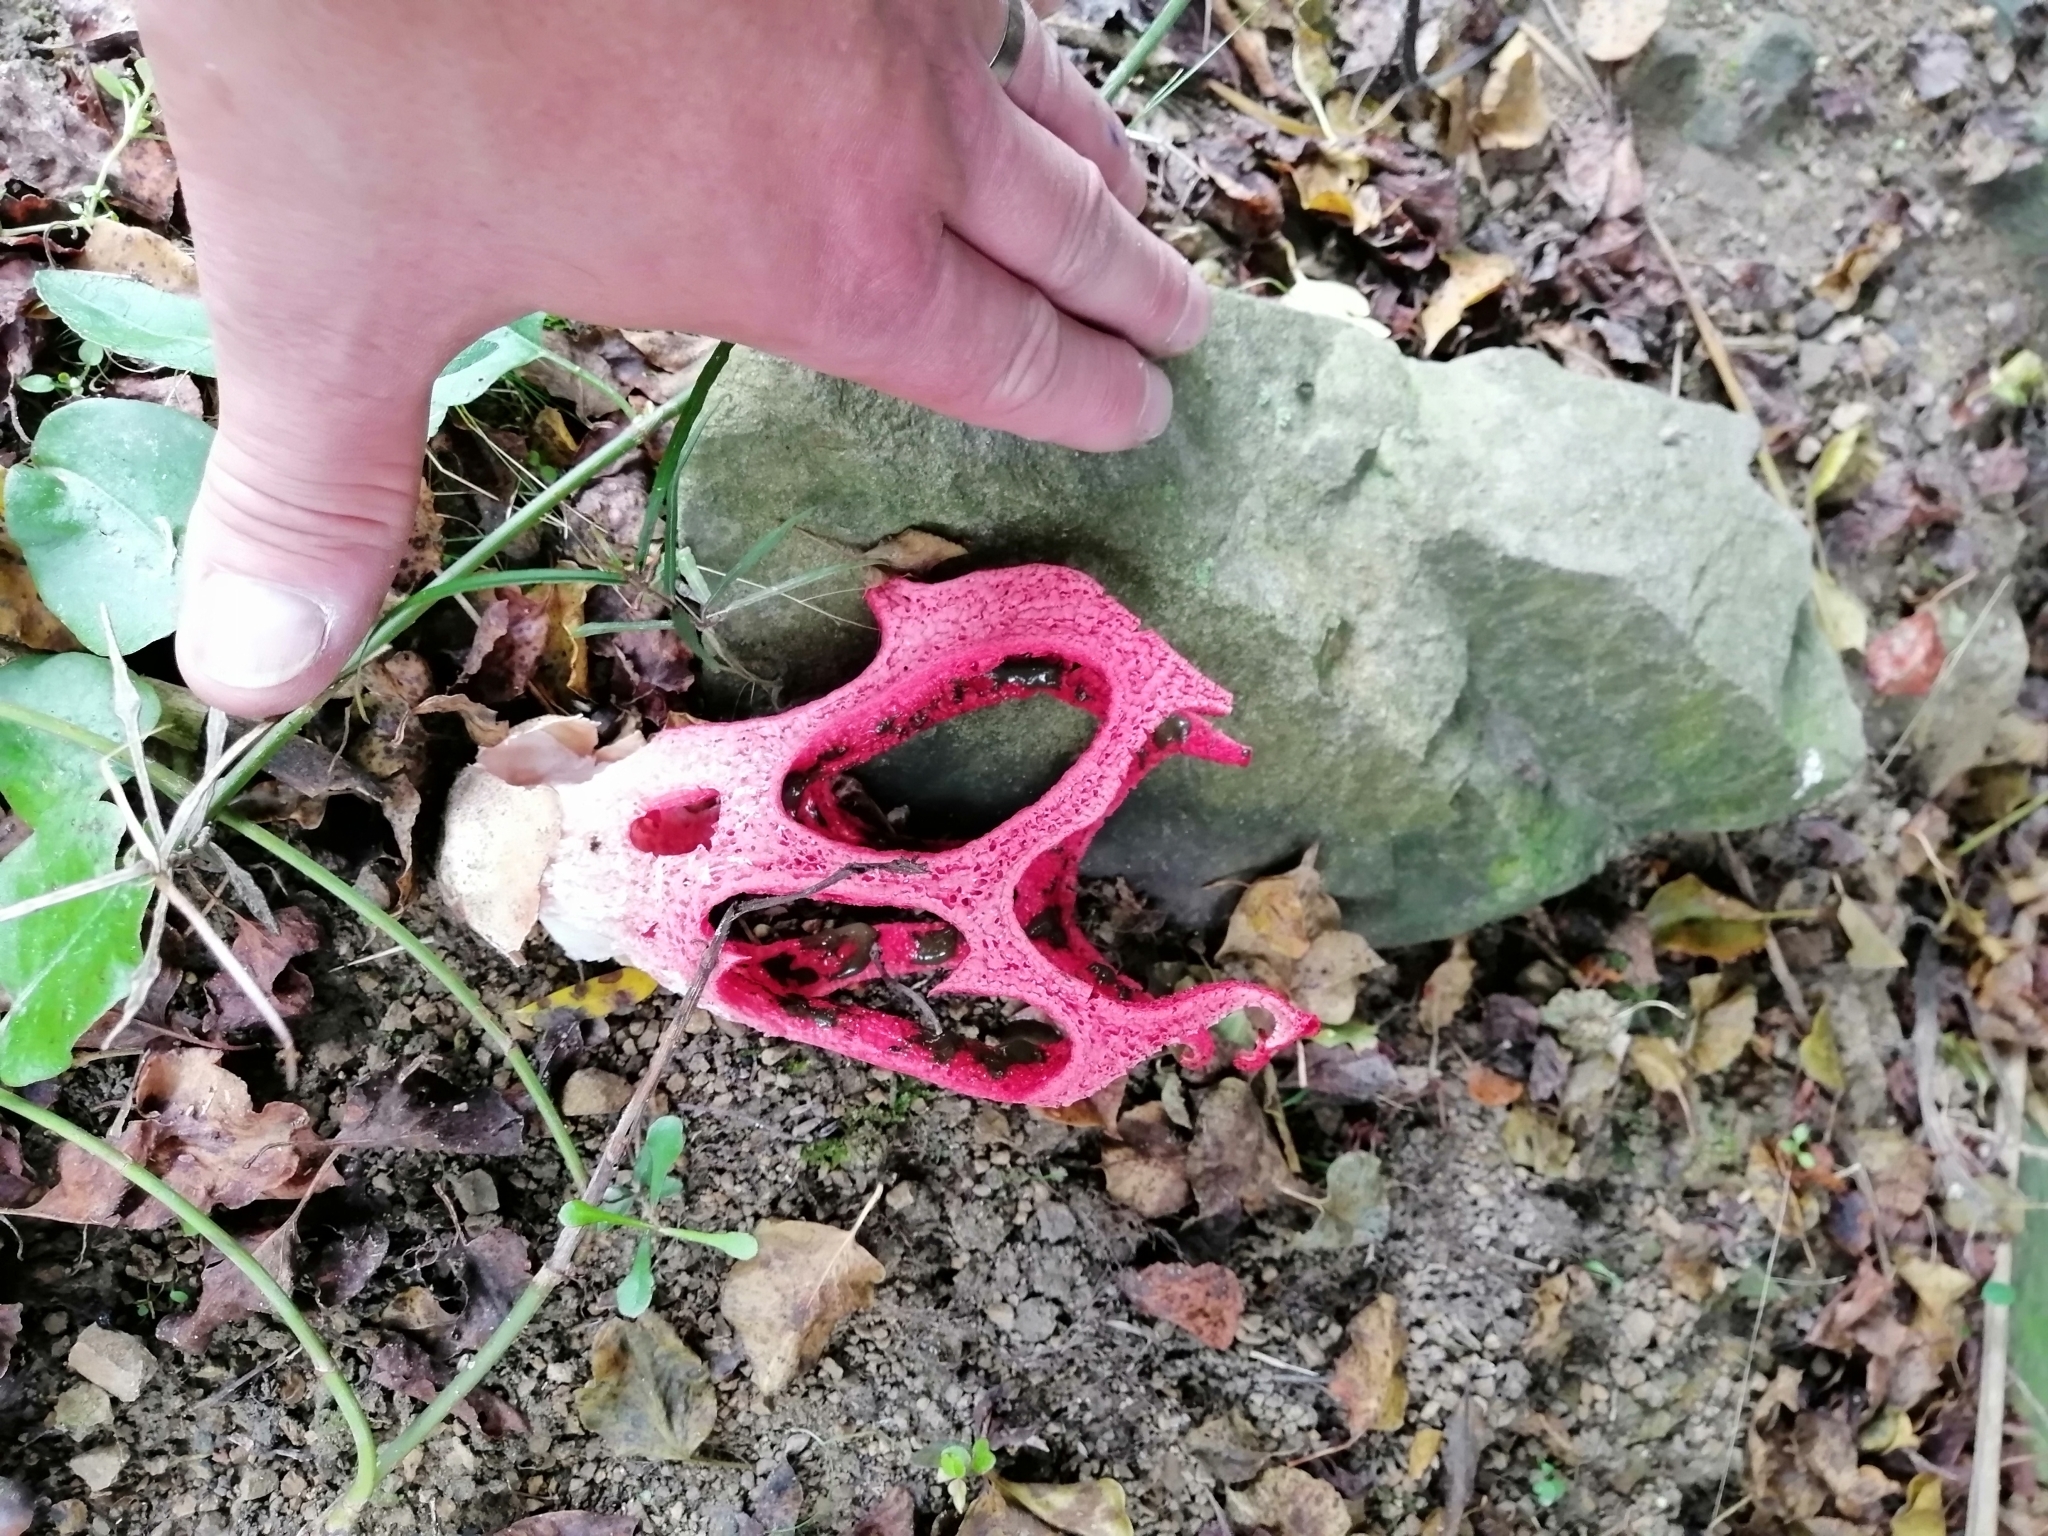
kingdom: Fungi
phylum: Basidiomycota
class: Agaricomycetes
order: Phallales
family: Phallaceae
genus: Clathrus
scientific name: Clathrus archeri
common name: Devil's fingers
